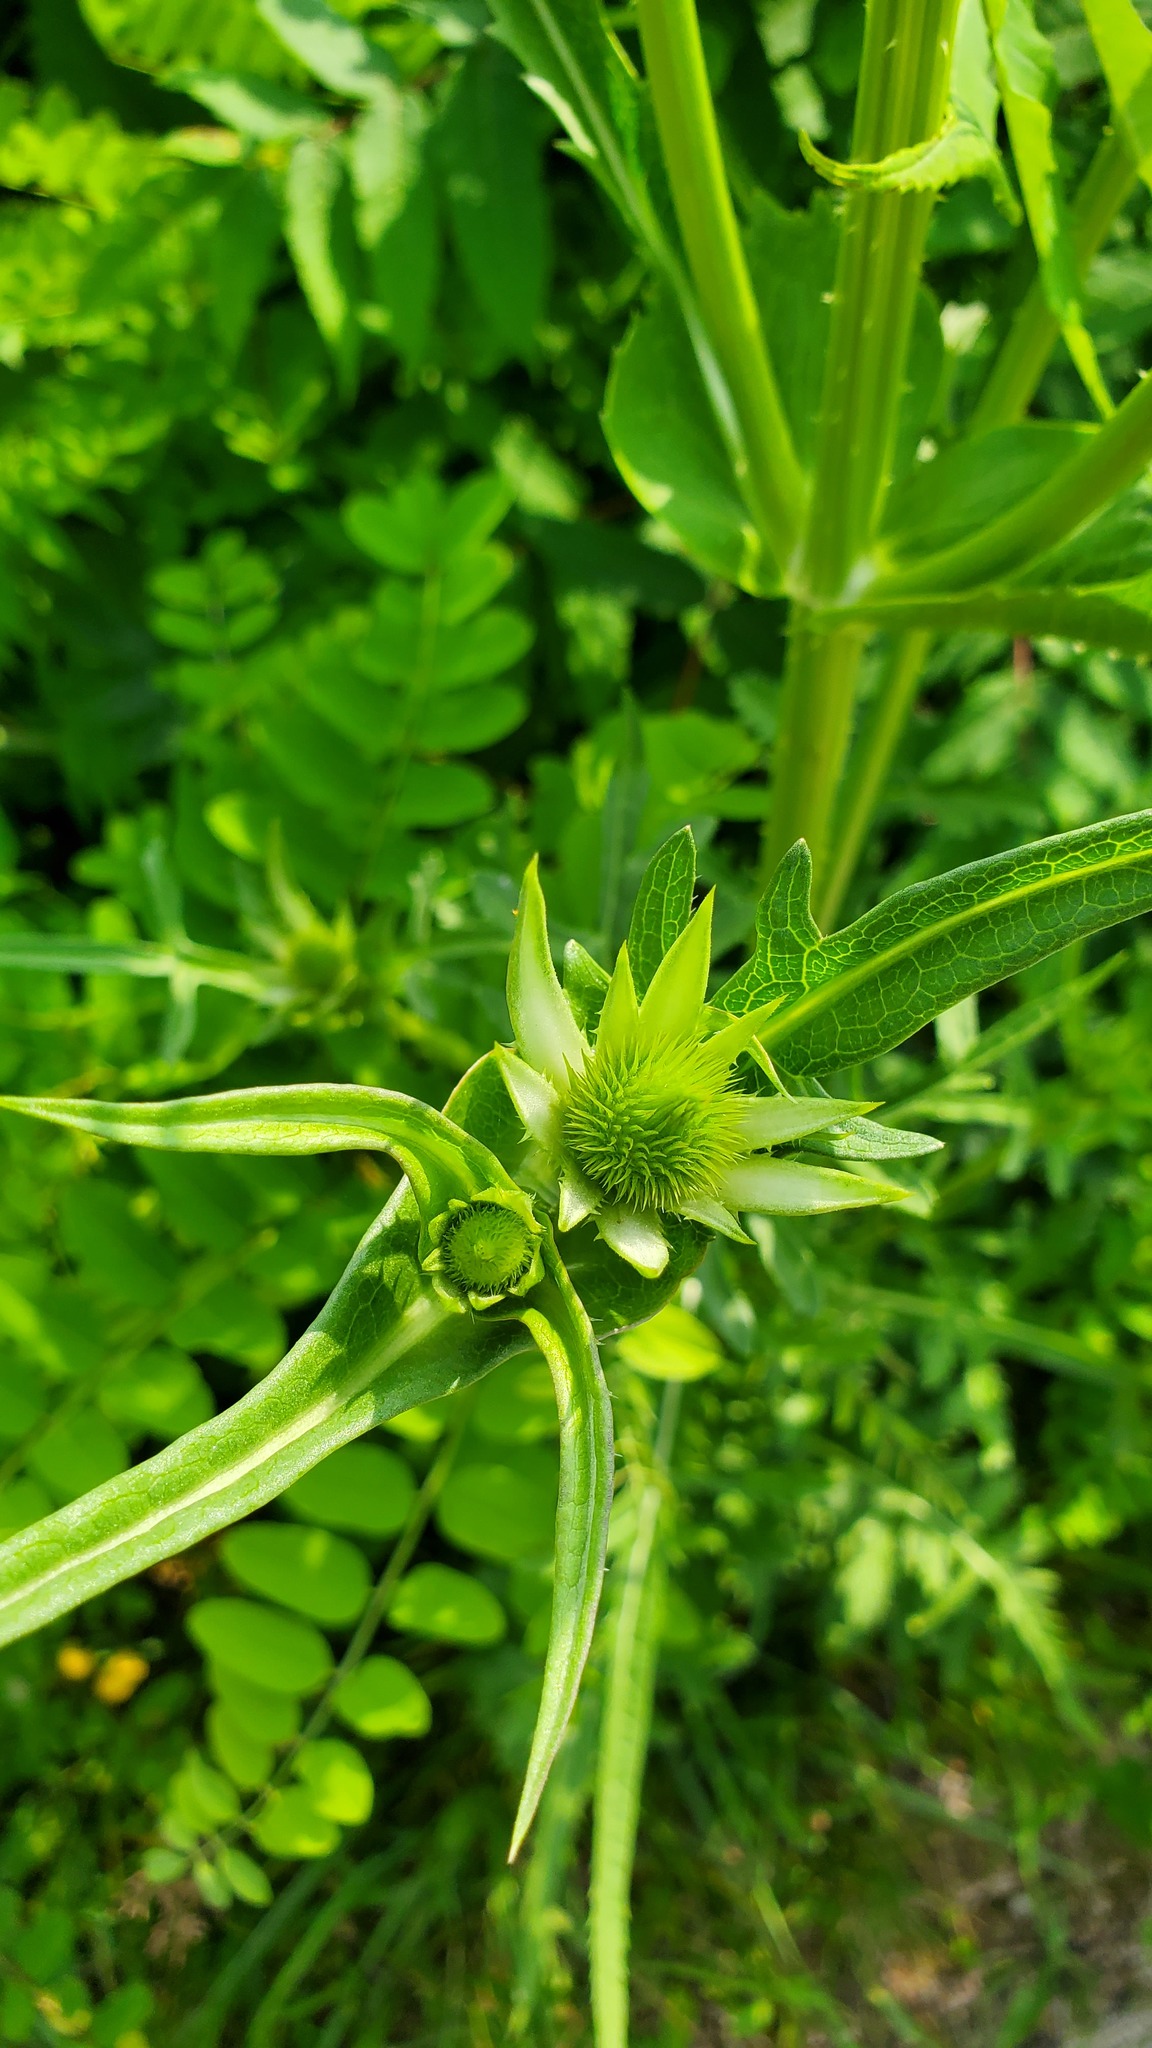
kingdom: Plantae
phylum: Tracheophyta
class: Magnoliopsida
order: Dipsacales
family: Caprifoliaceae
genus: Dipsacus
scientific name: Dipsacus laciniatus
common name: Cut-leaved teasel
